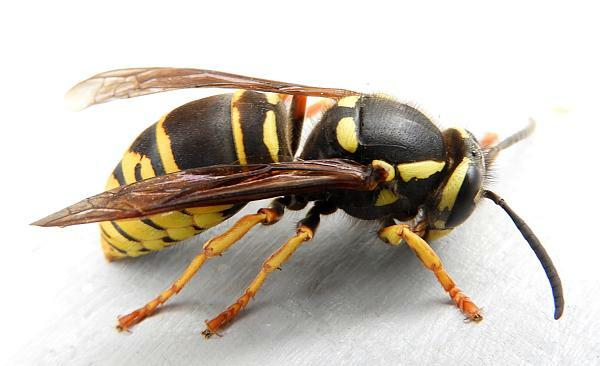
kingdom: Animalia
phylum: Arthropoda
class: Insecta
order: Hymenoptera
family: Vespidae
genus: Vespula
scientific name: Vespula vidua
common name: Widow yellowjacket
